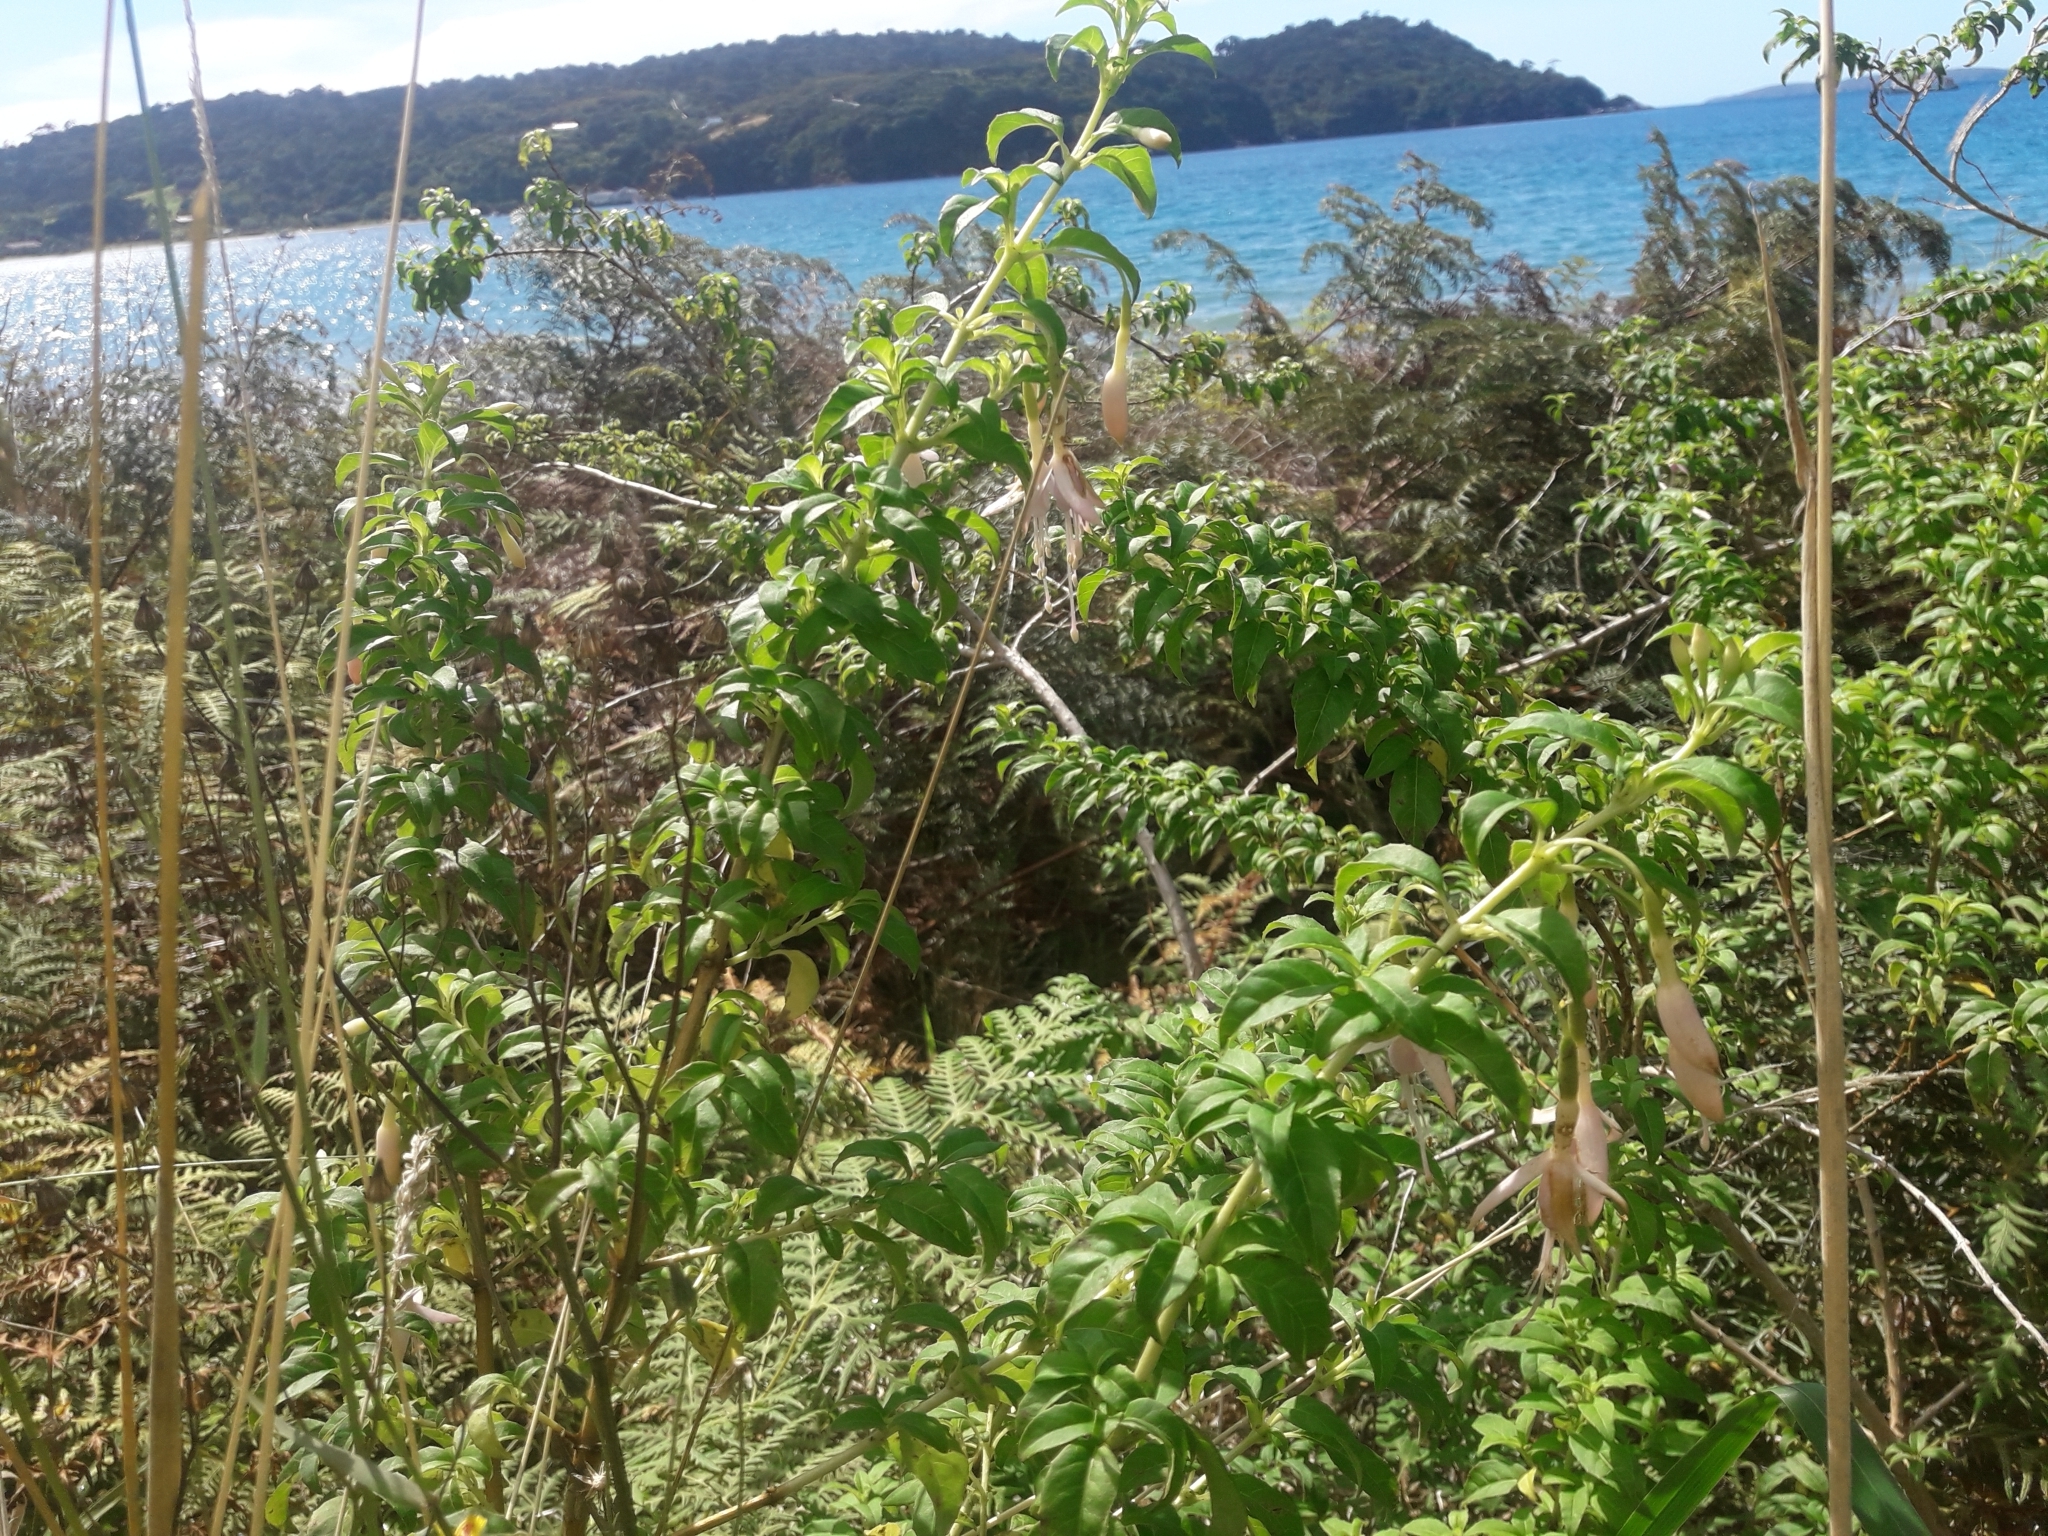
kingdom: Plantae
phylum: Tracheophyta
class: Magnoliopsida
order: Myrtales
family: Onagraceae
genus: Fuchsia
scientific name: Fuchsia magellanica
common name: Hardy fuchsia
